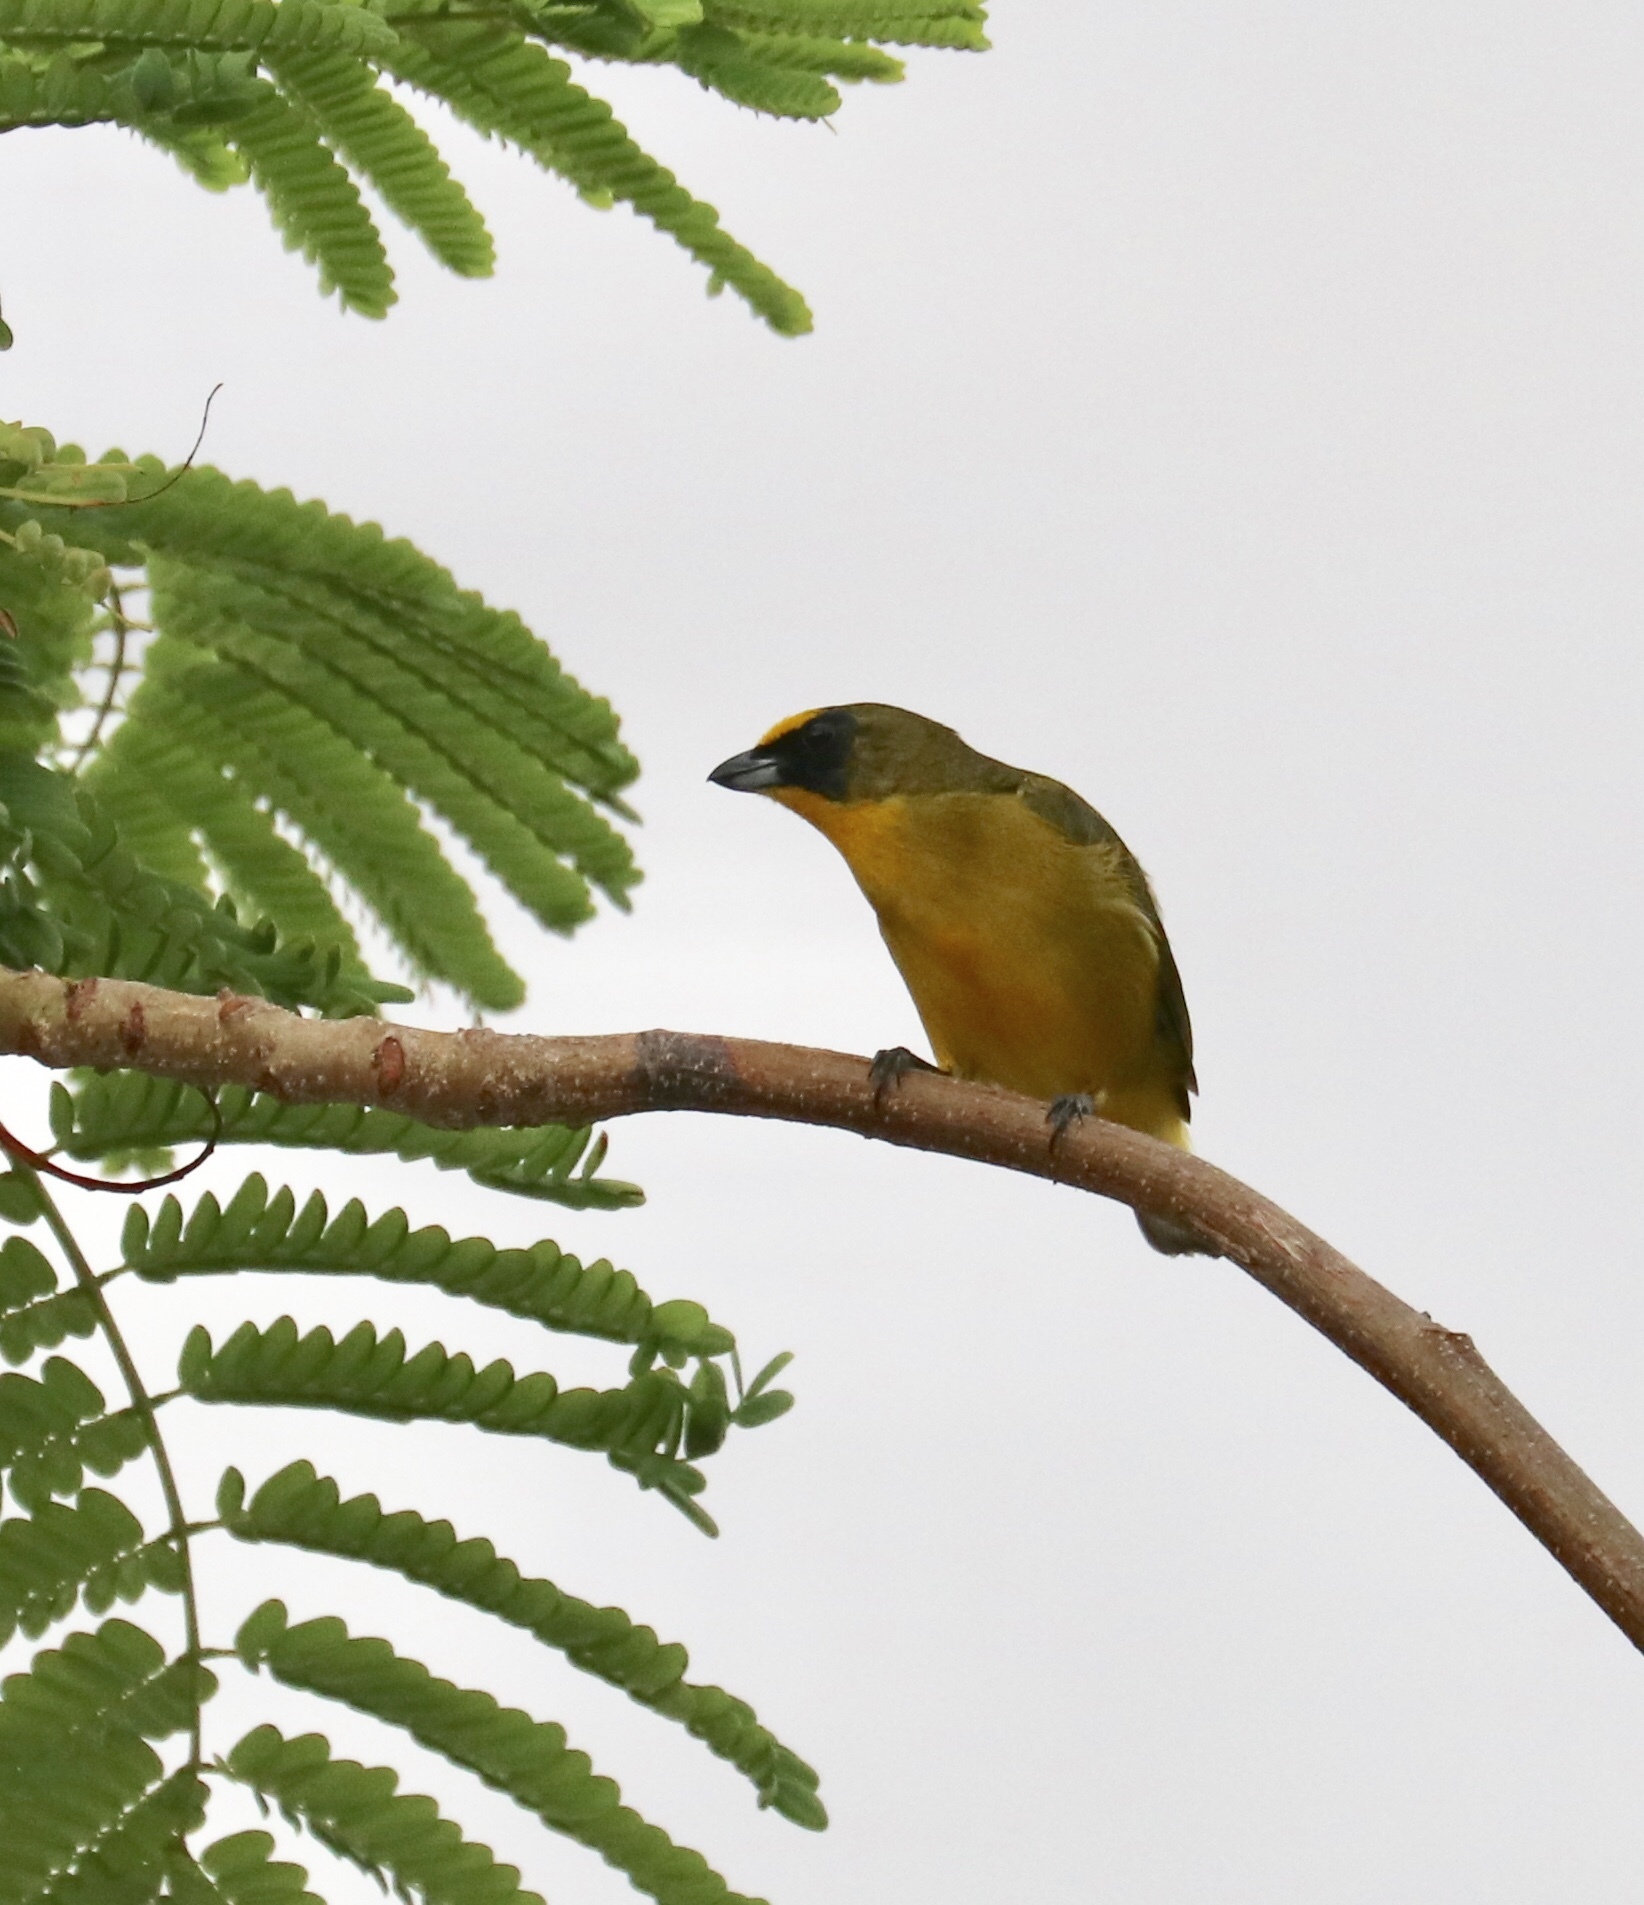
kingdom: Animalia
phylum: Chordata
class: Aves
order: Passeriformes
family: Fringillidae
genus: Euphonia
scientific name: Euphonia laniirostris
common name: Thick-billed euphonia
